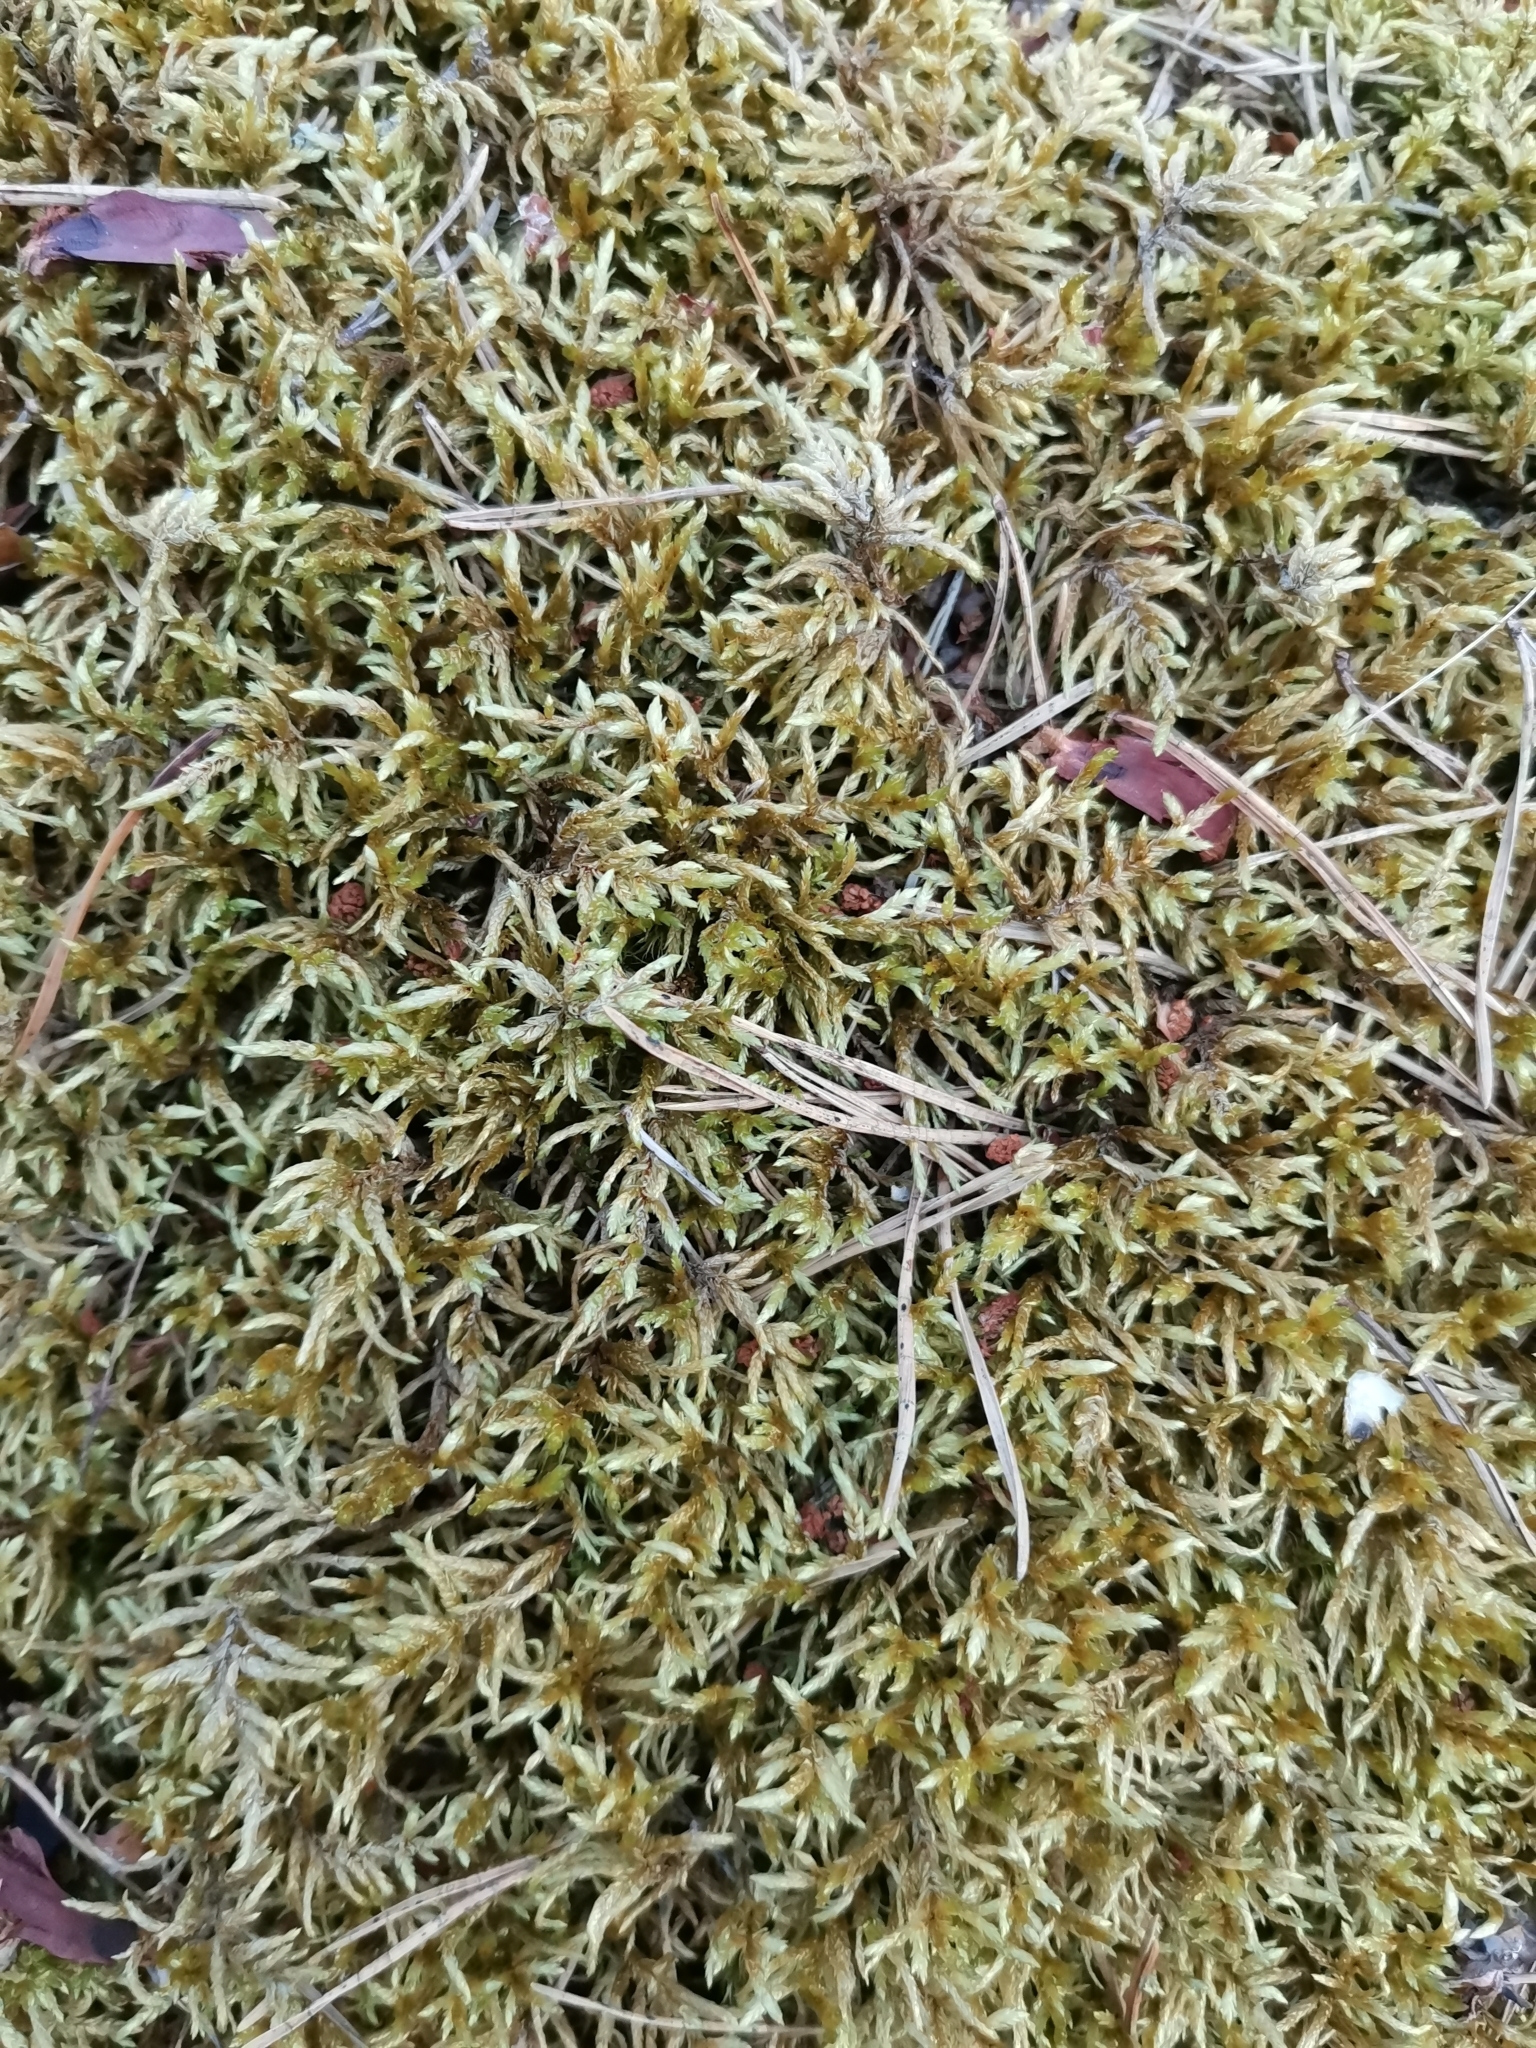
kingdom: Plantae
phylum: Bryophyta
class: Bryopsida
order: Hypnales
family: Hylocomiaceae
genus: Pleurozium
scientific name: Pleurozium schreberi
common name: Red-stemmed feather moss
